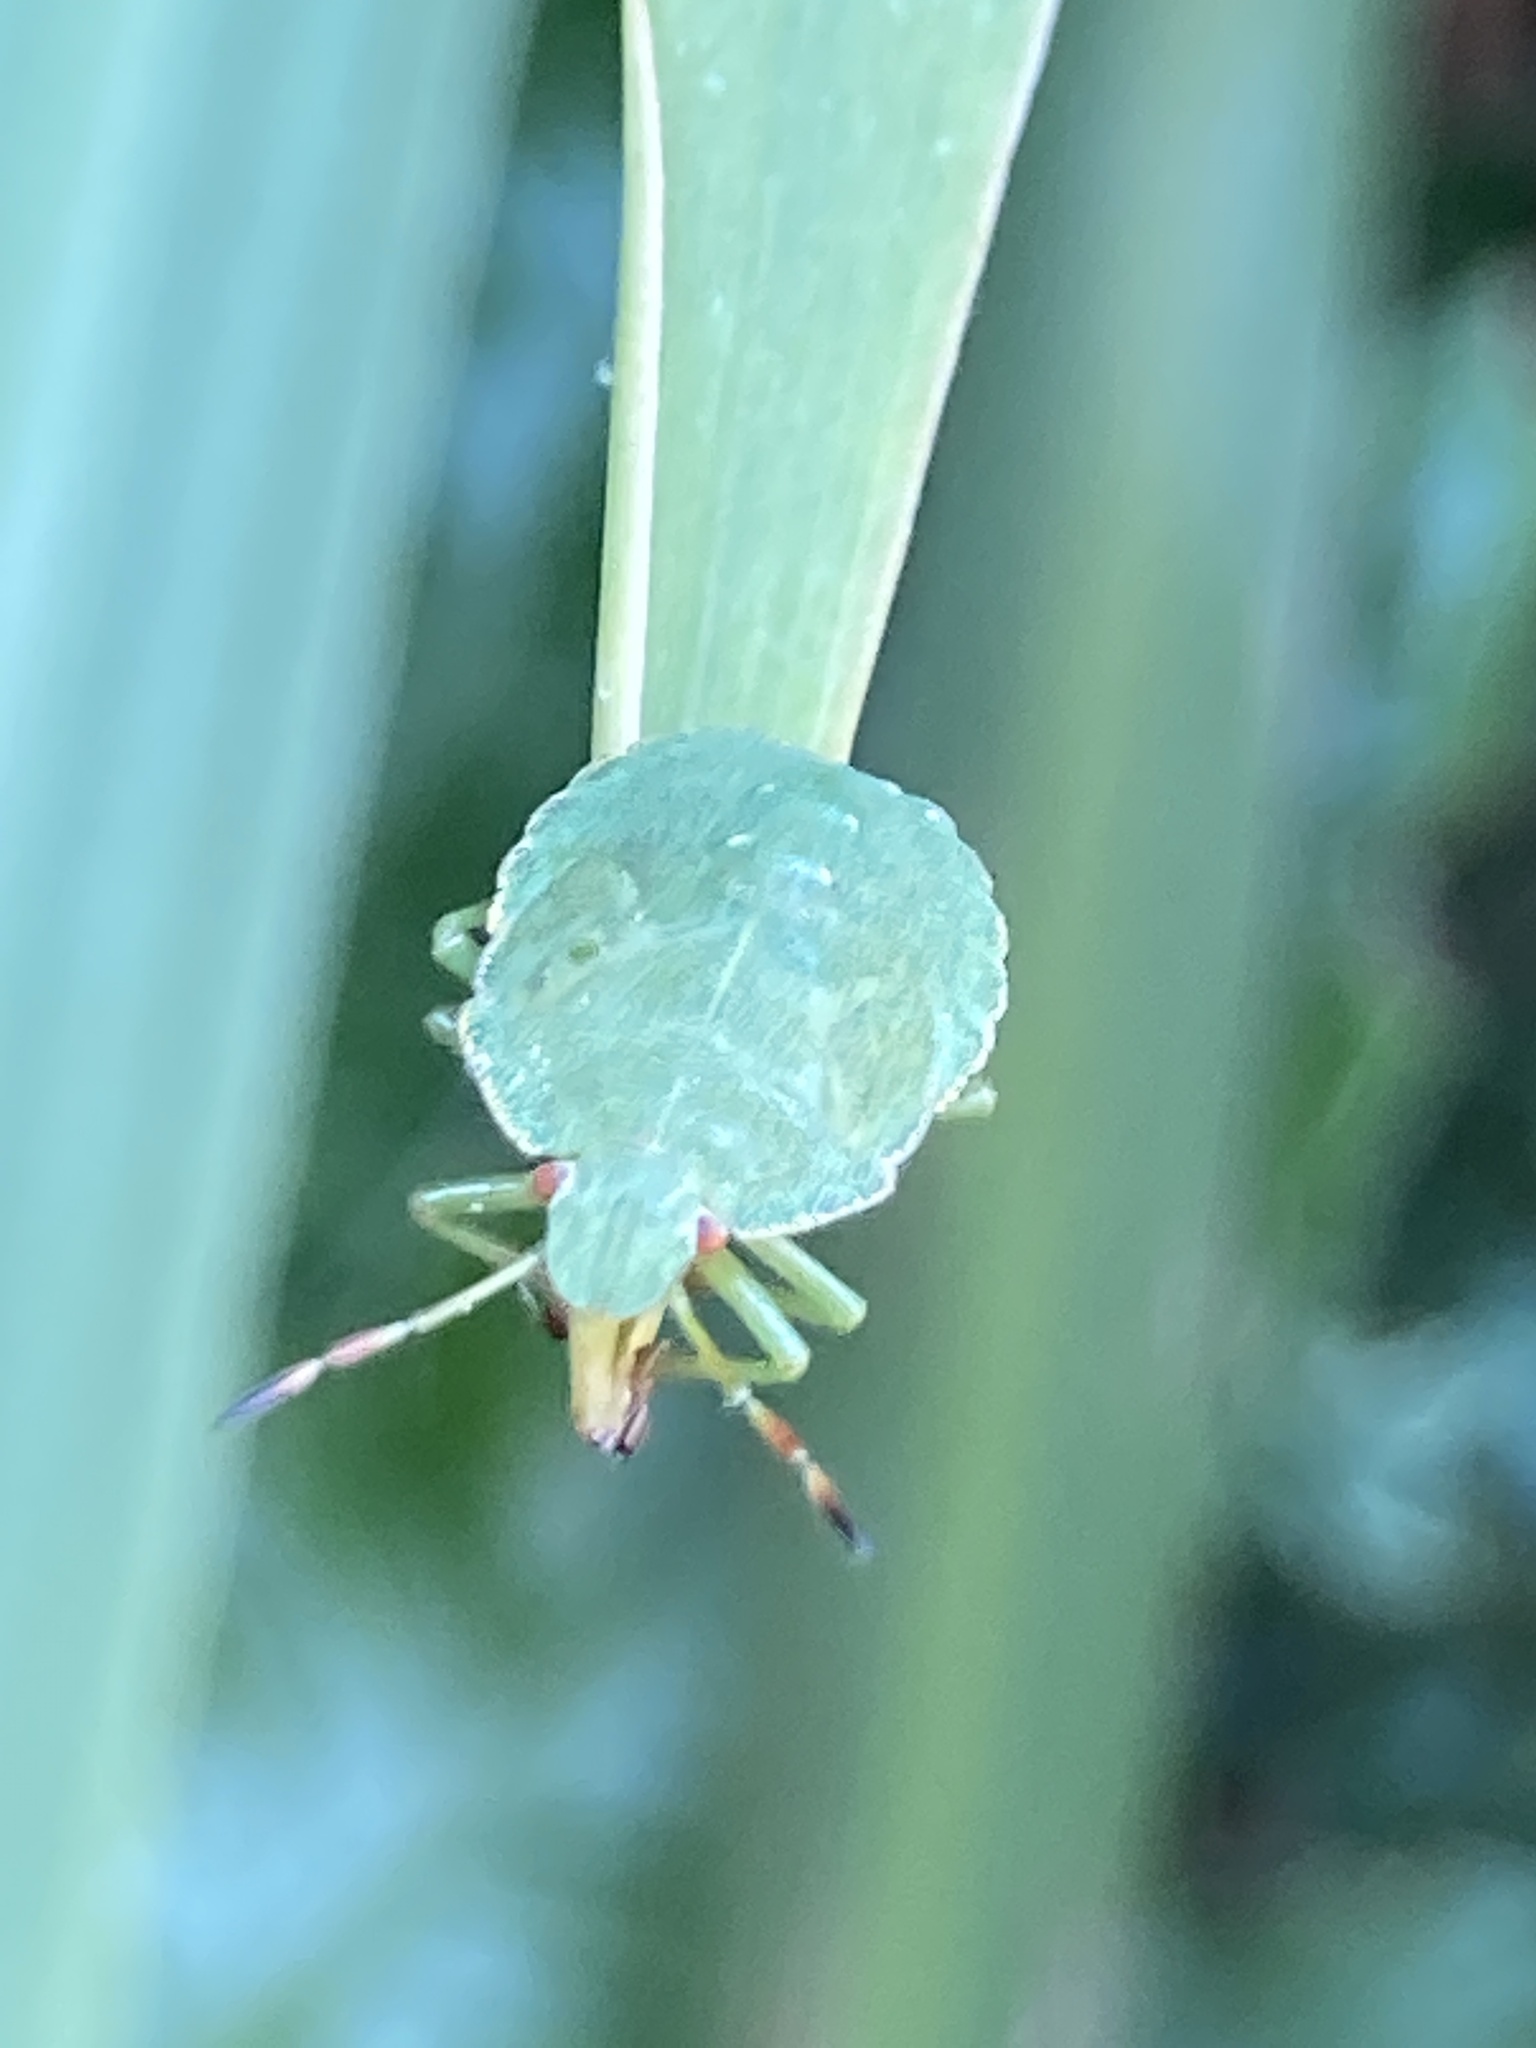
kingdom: Animalia
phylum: Arthropoda
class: Insecta
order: Hemiptera
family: Pentatomidae
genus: Palomena
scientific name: Palomena prasina
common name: Green shieldbug
